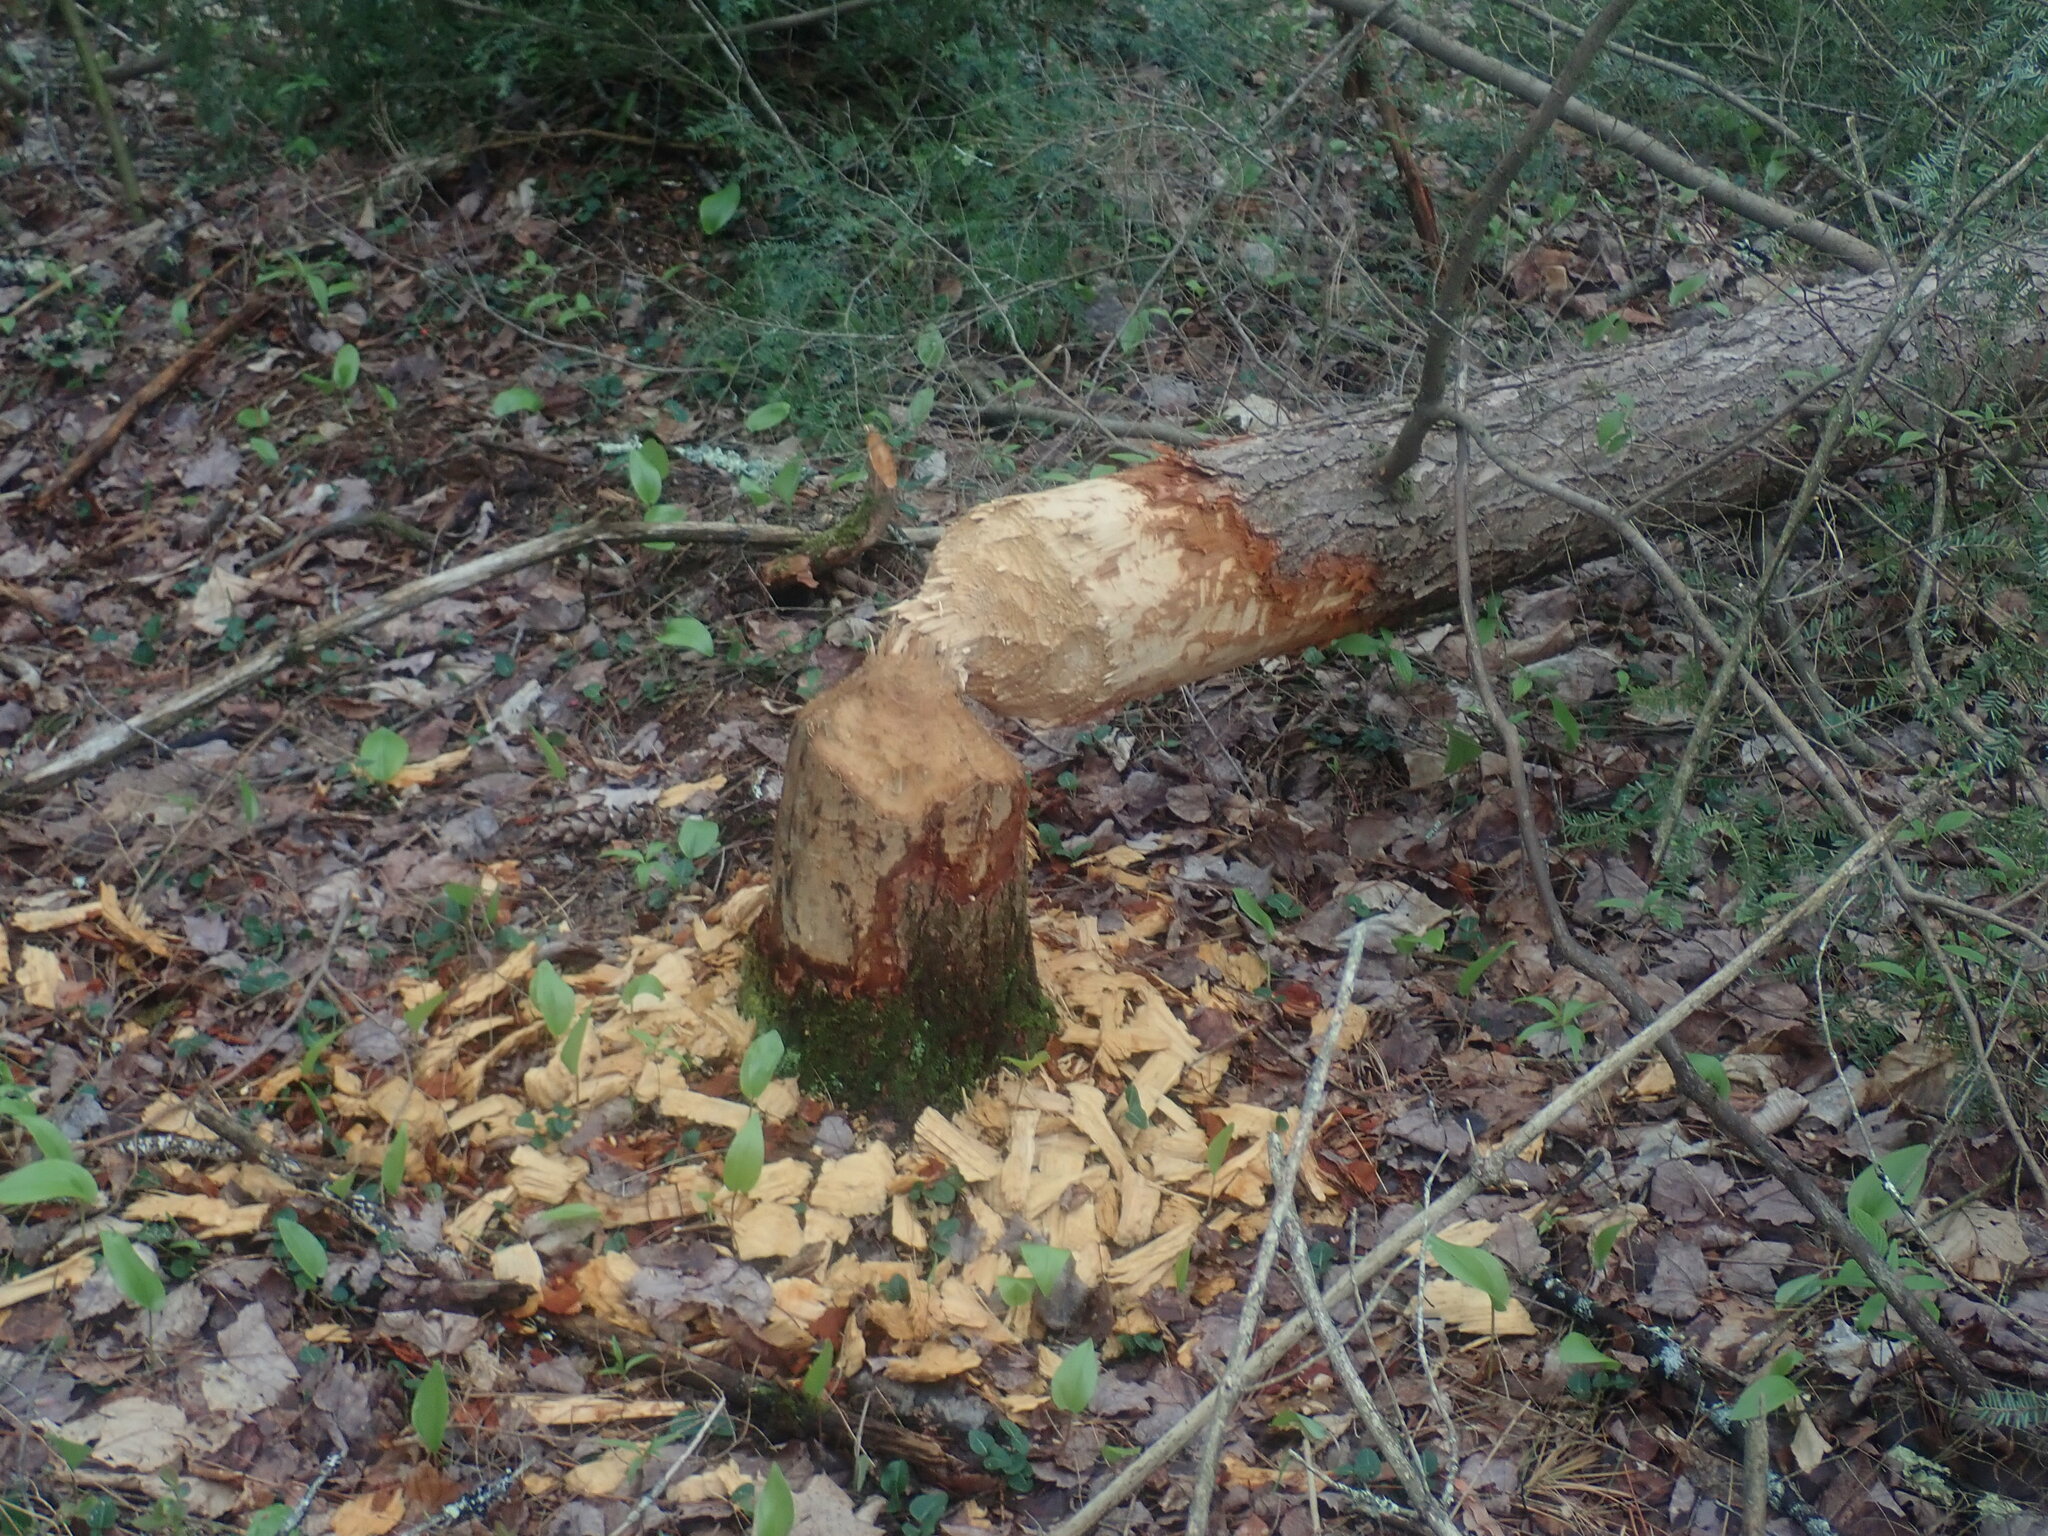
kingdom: Animalia
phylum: Chordata
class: Mammalia
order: Rodentia
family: Castoridae
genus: Castor
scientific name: Castor canadensis
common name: American beaver
